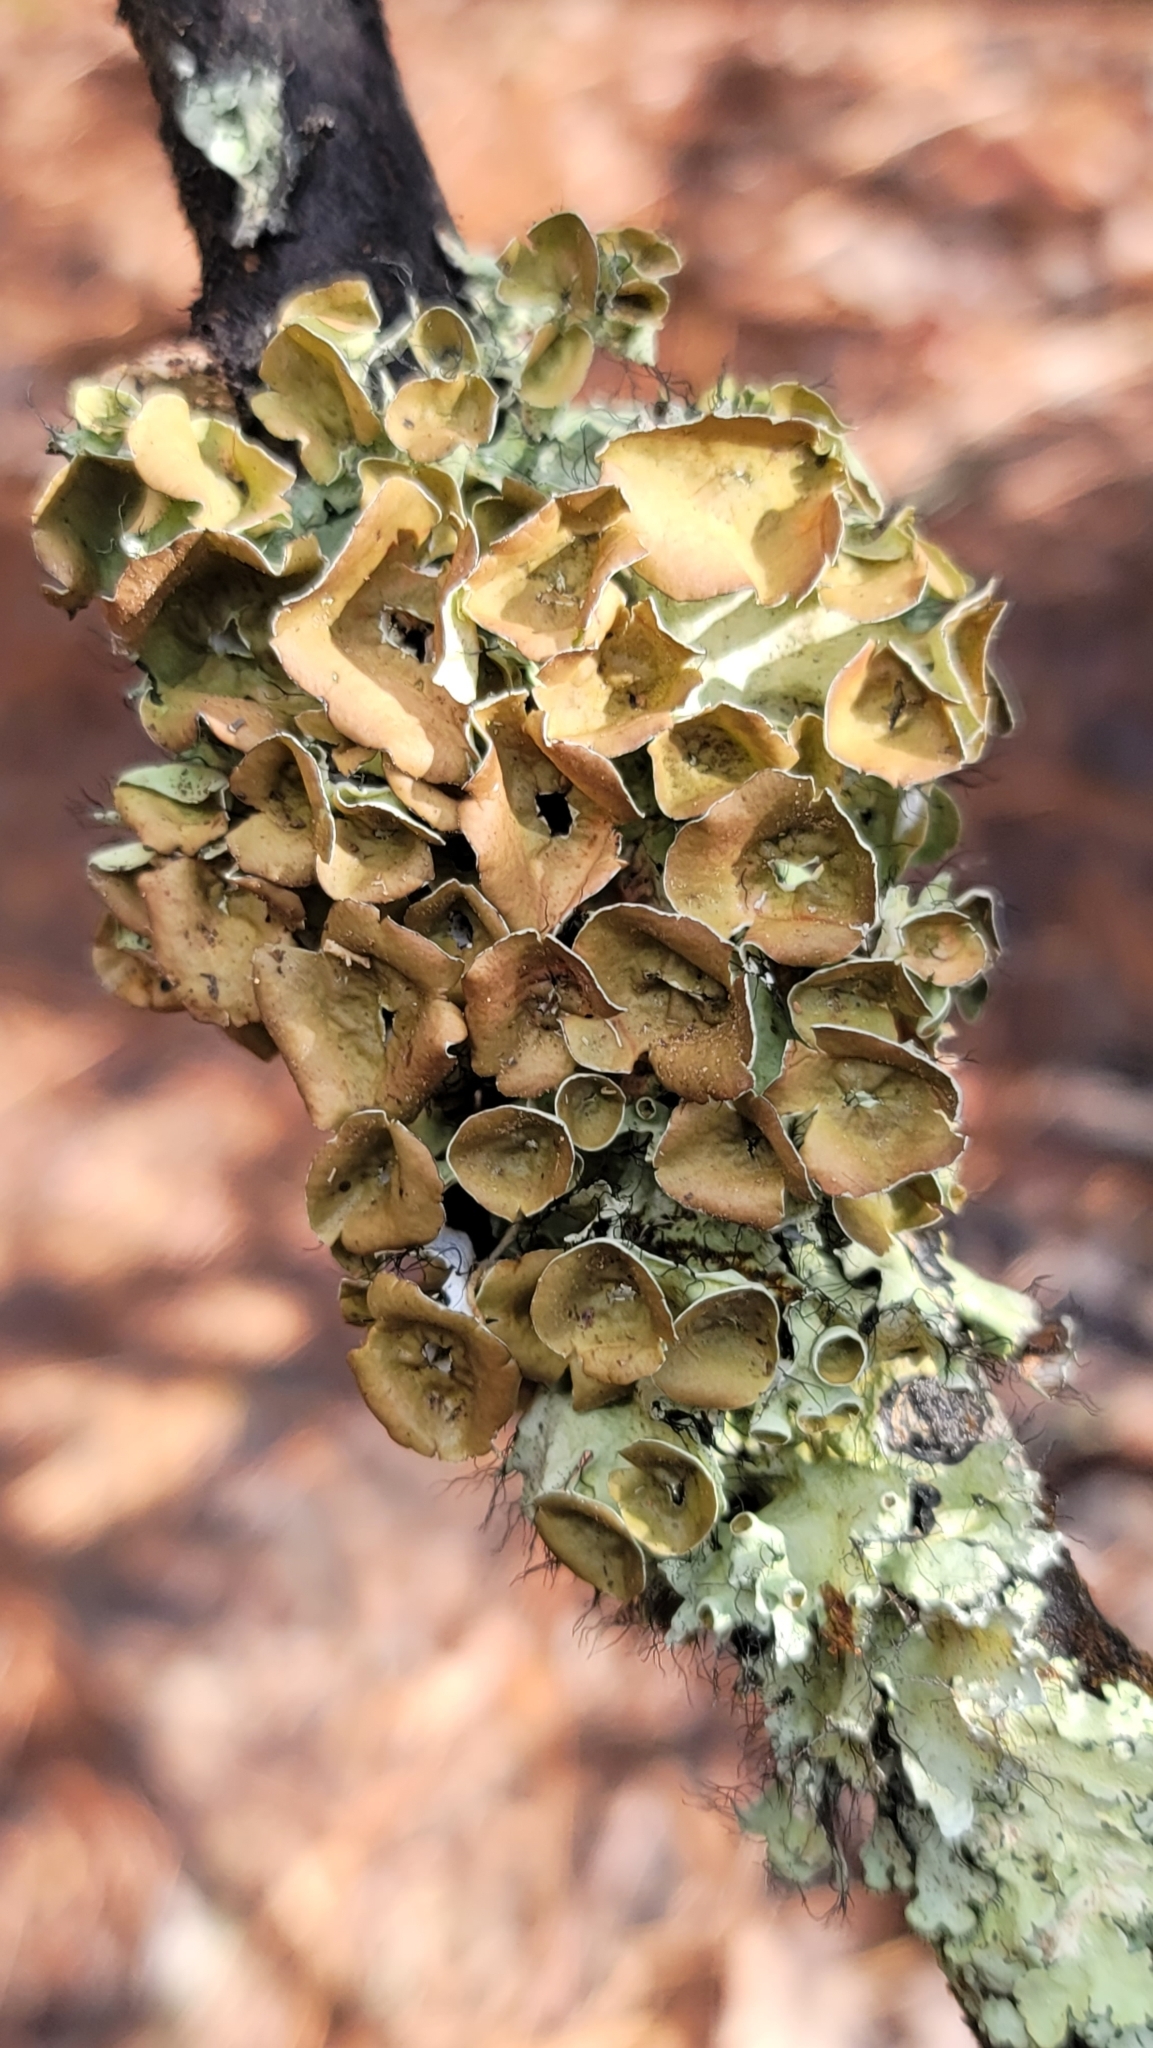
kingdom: Fungi
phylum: Ascomycota
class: Lecanoromycetes
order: Lecanorales
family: Parmeliaceae
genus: Parmotrema
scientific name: Parmotrema perforatum
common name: Perforated ruffle lichen
